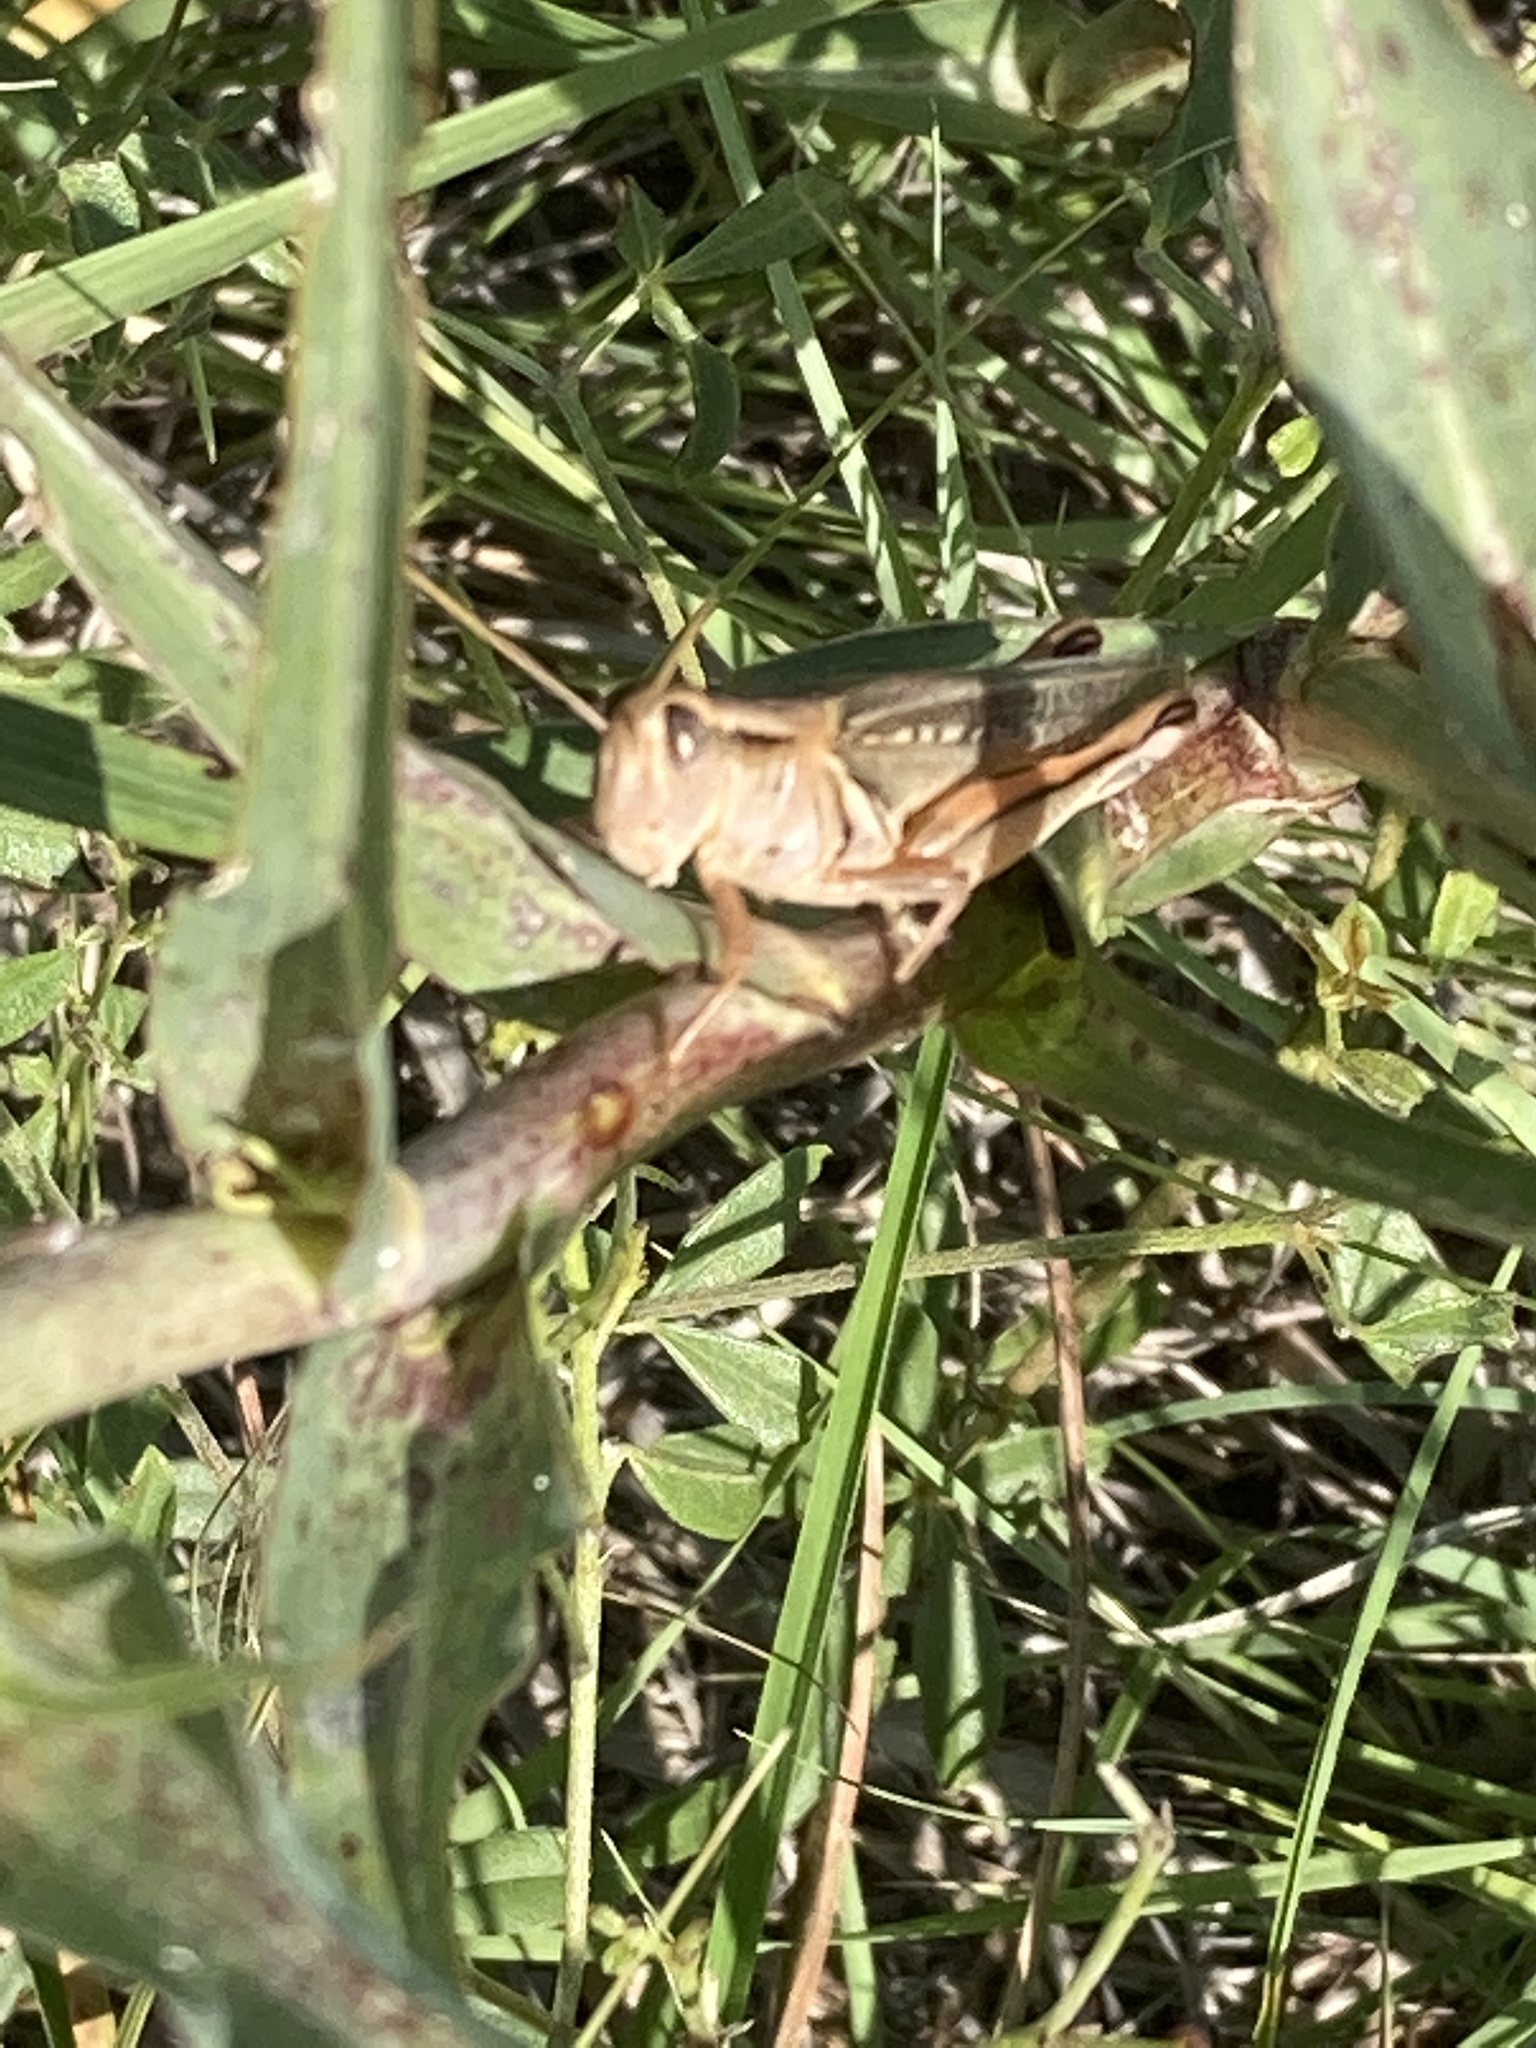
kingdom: Animalia
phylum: Arthropoda
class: Insecta
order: Orthoptera
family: Acrididae
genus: Melanoplus
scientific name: Melanoplus bivittatus
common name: Two-striped grasshopper
